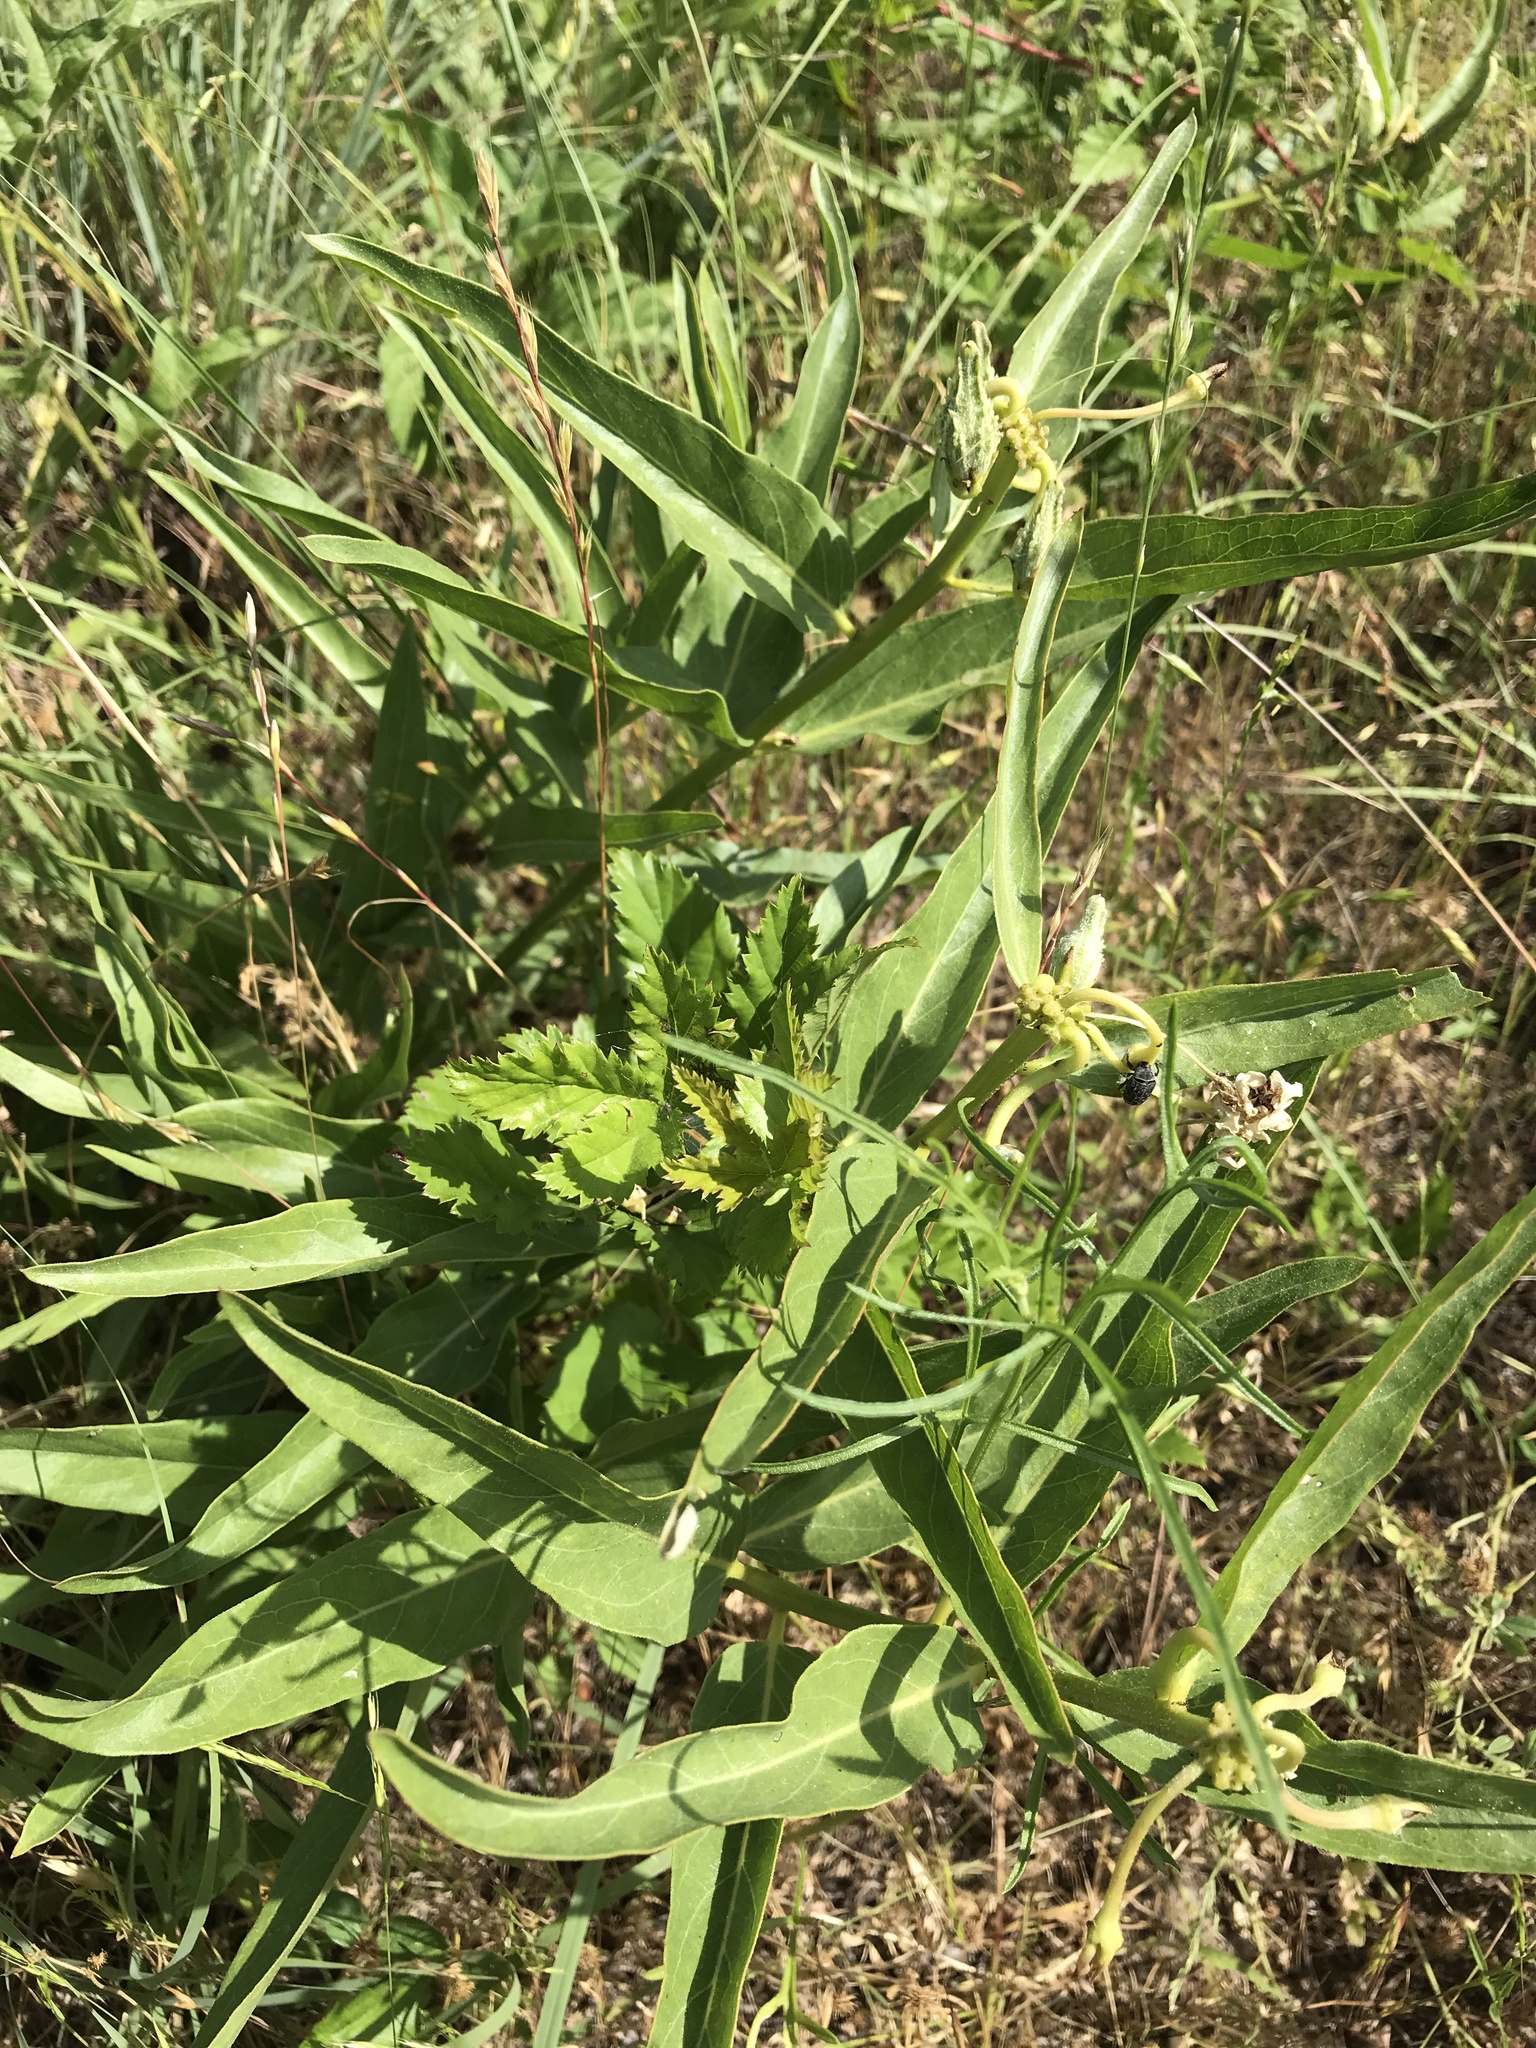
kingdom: Plantae
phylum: Tracheophyta
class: Magnoliopsida
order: Gentianales
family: Apocynaceae
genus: Asclepias
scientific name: Asclepias asperula
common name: Antelope horns
